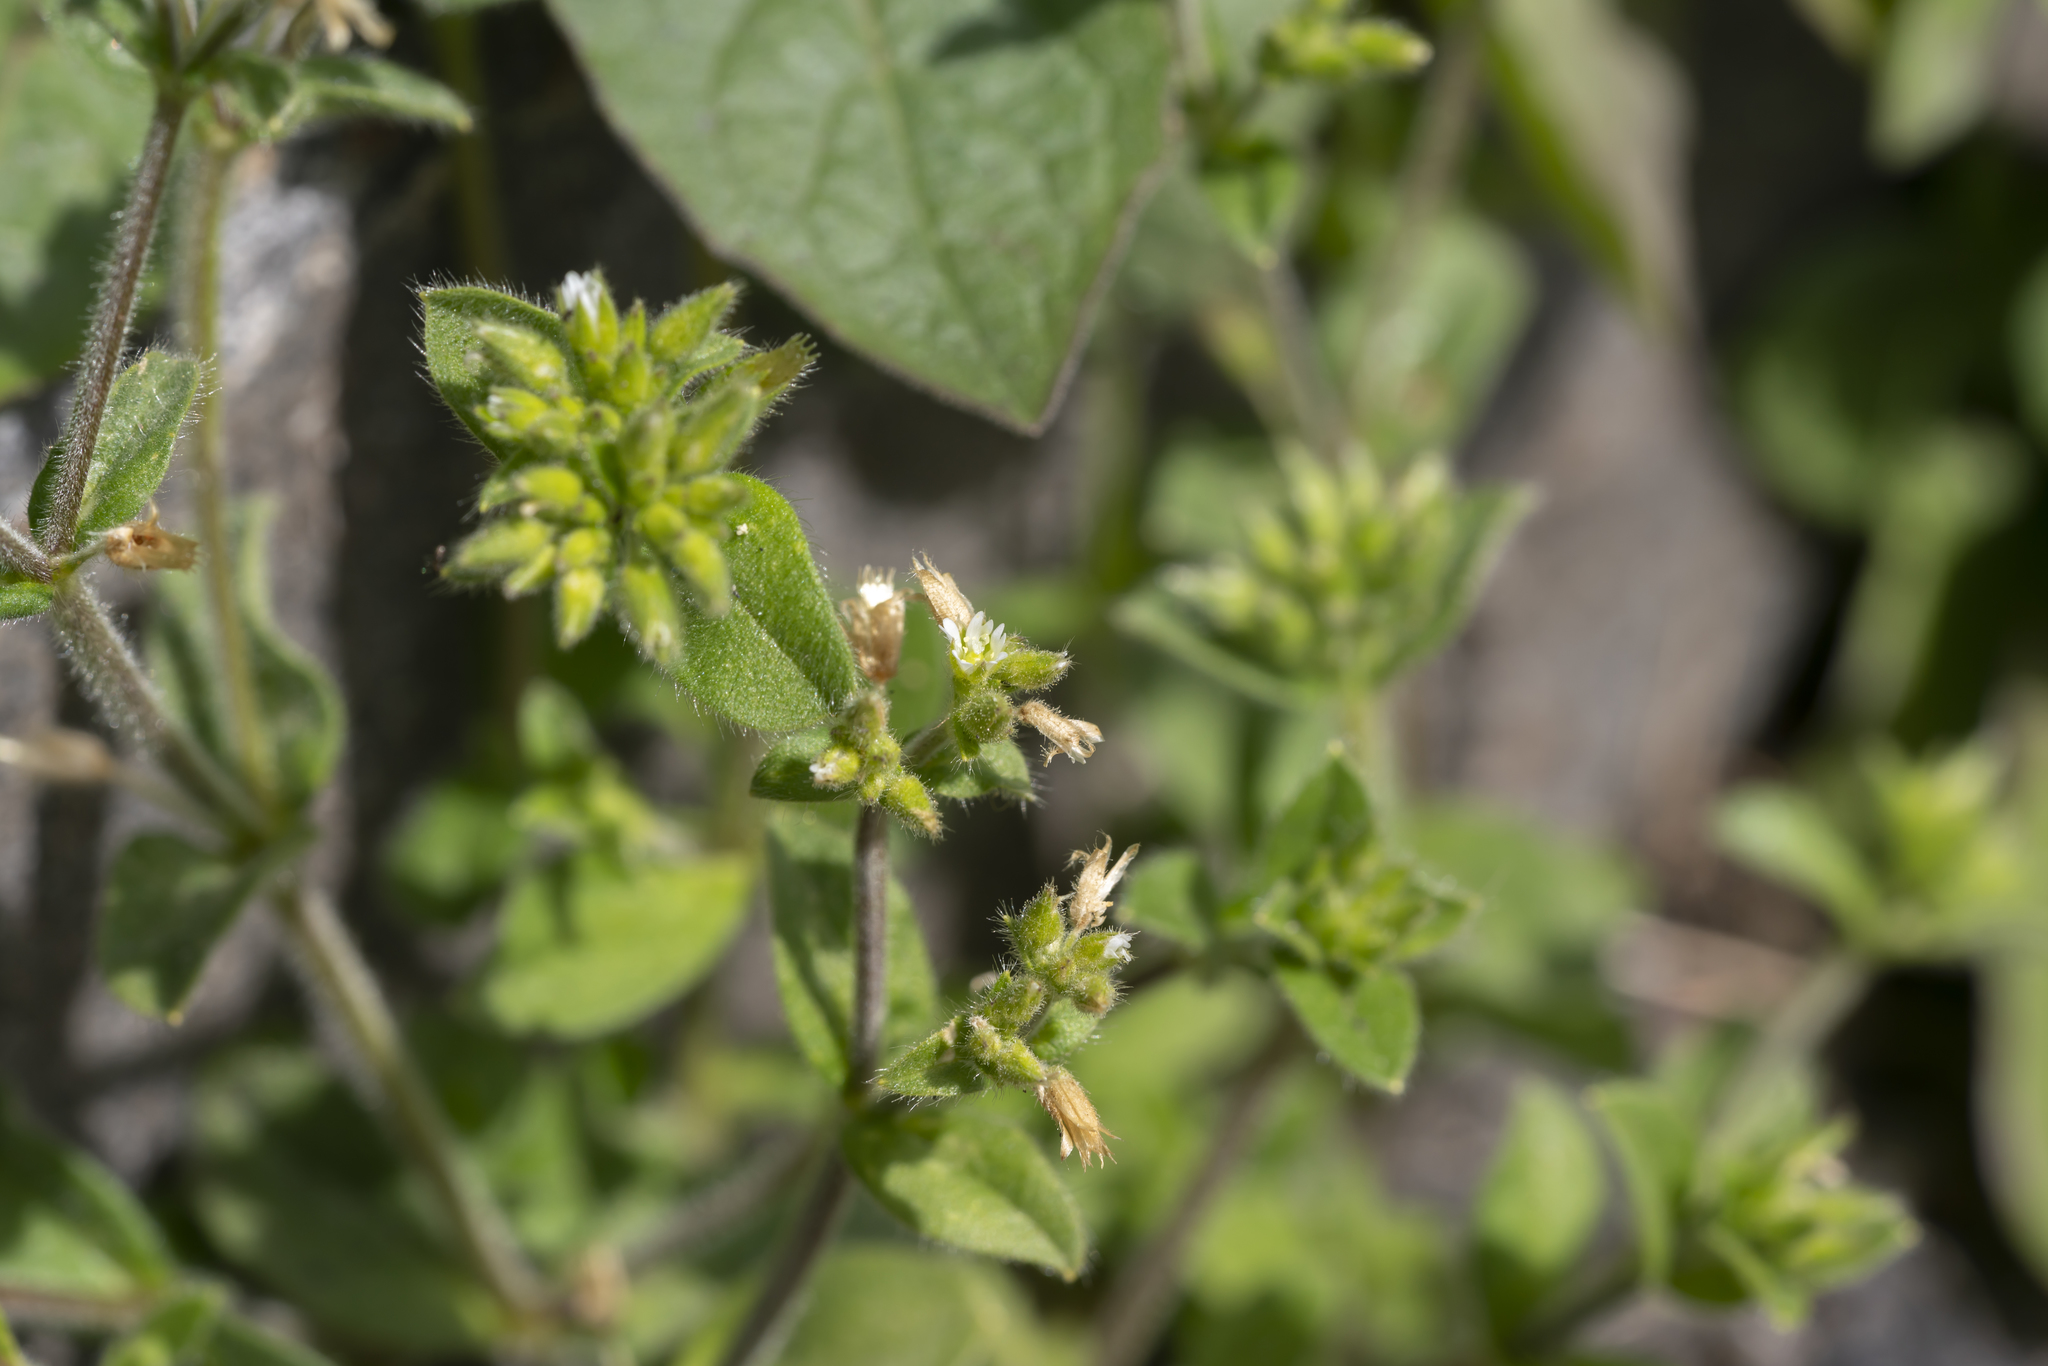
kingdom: Plantae
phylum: Tracheophyta
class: Magnoliopsida
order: Caryophyllales
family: Caryophyllaceae
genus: Cerastium
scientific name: Cerastium glomeratum
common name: Sticky chickweed
